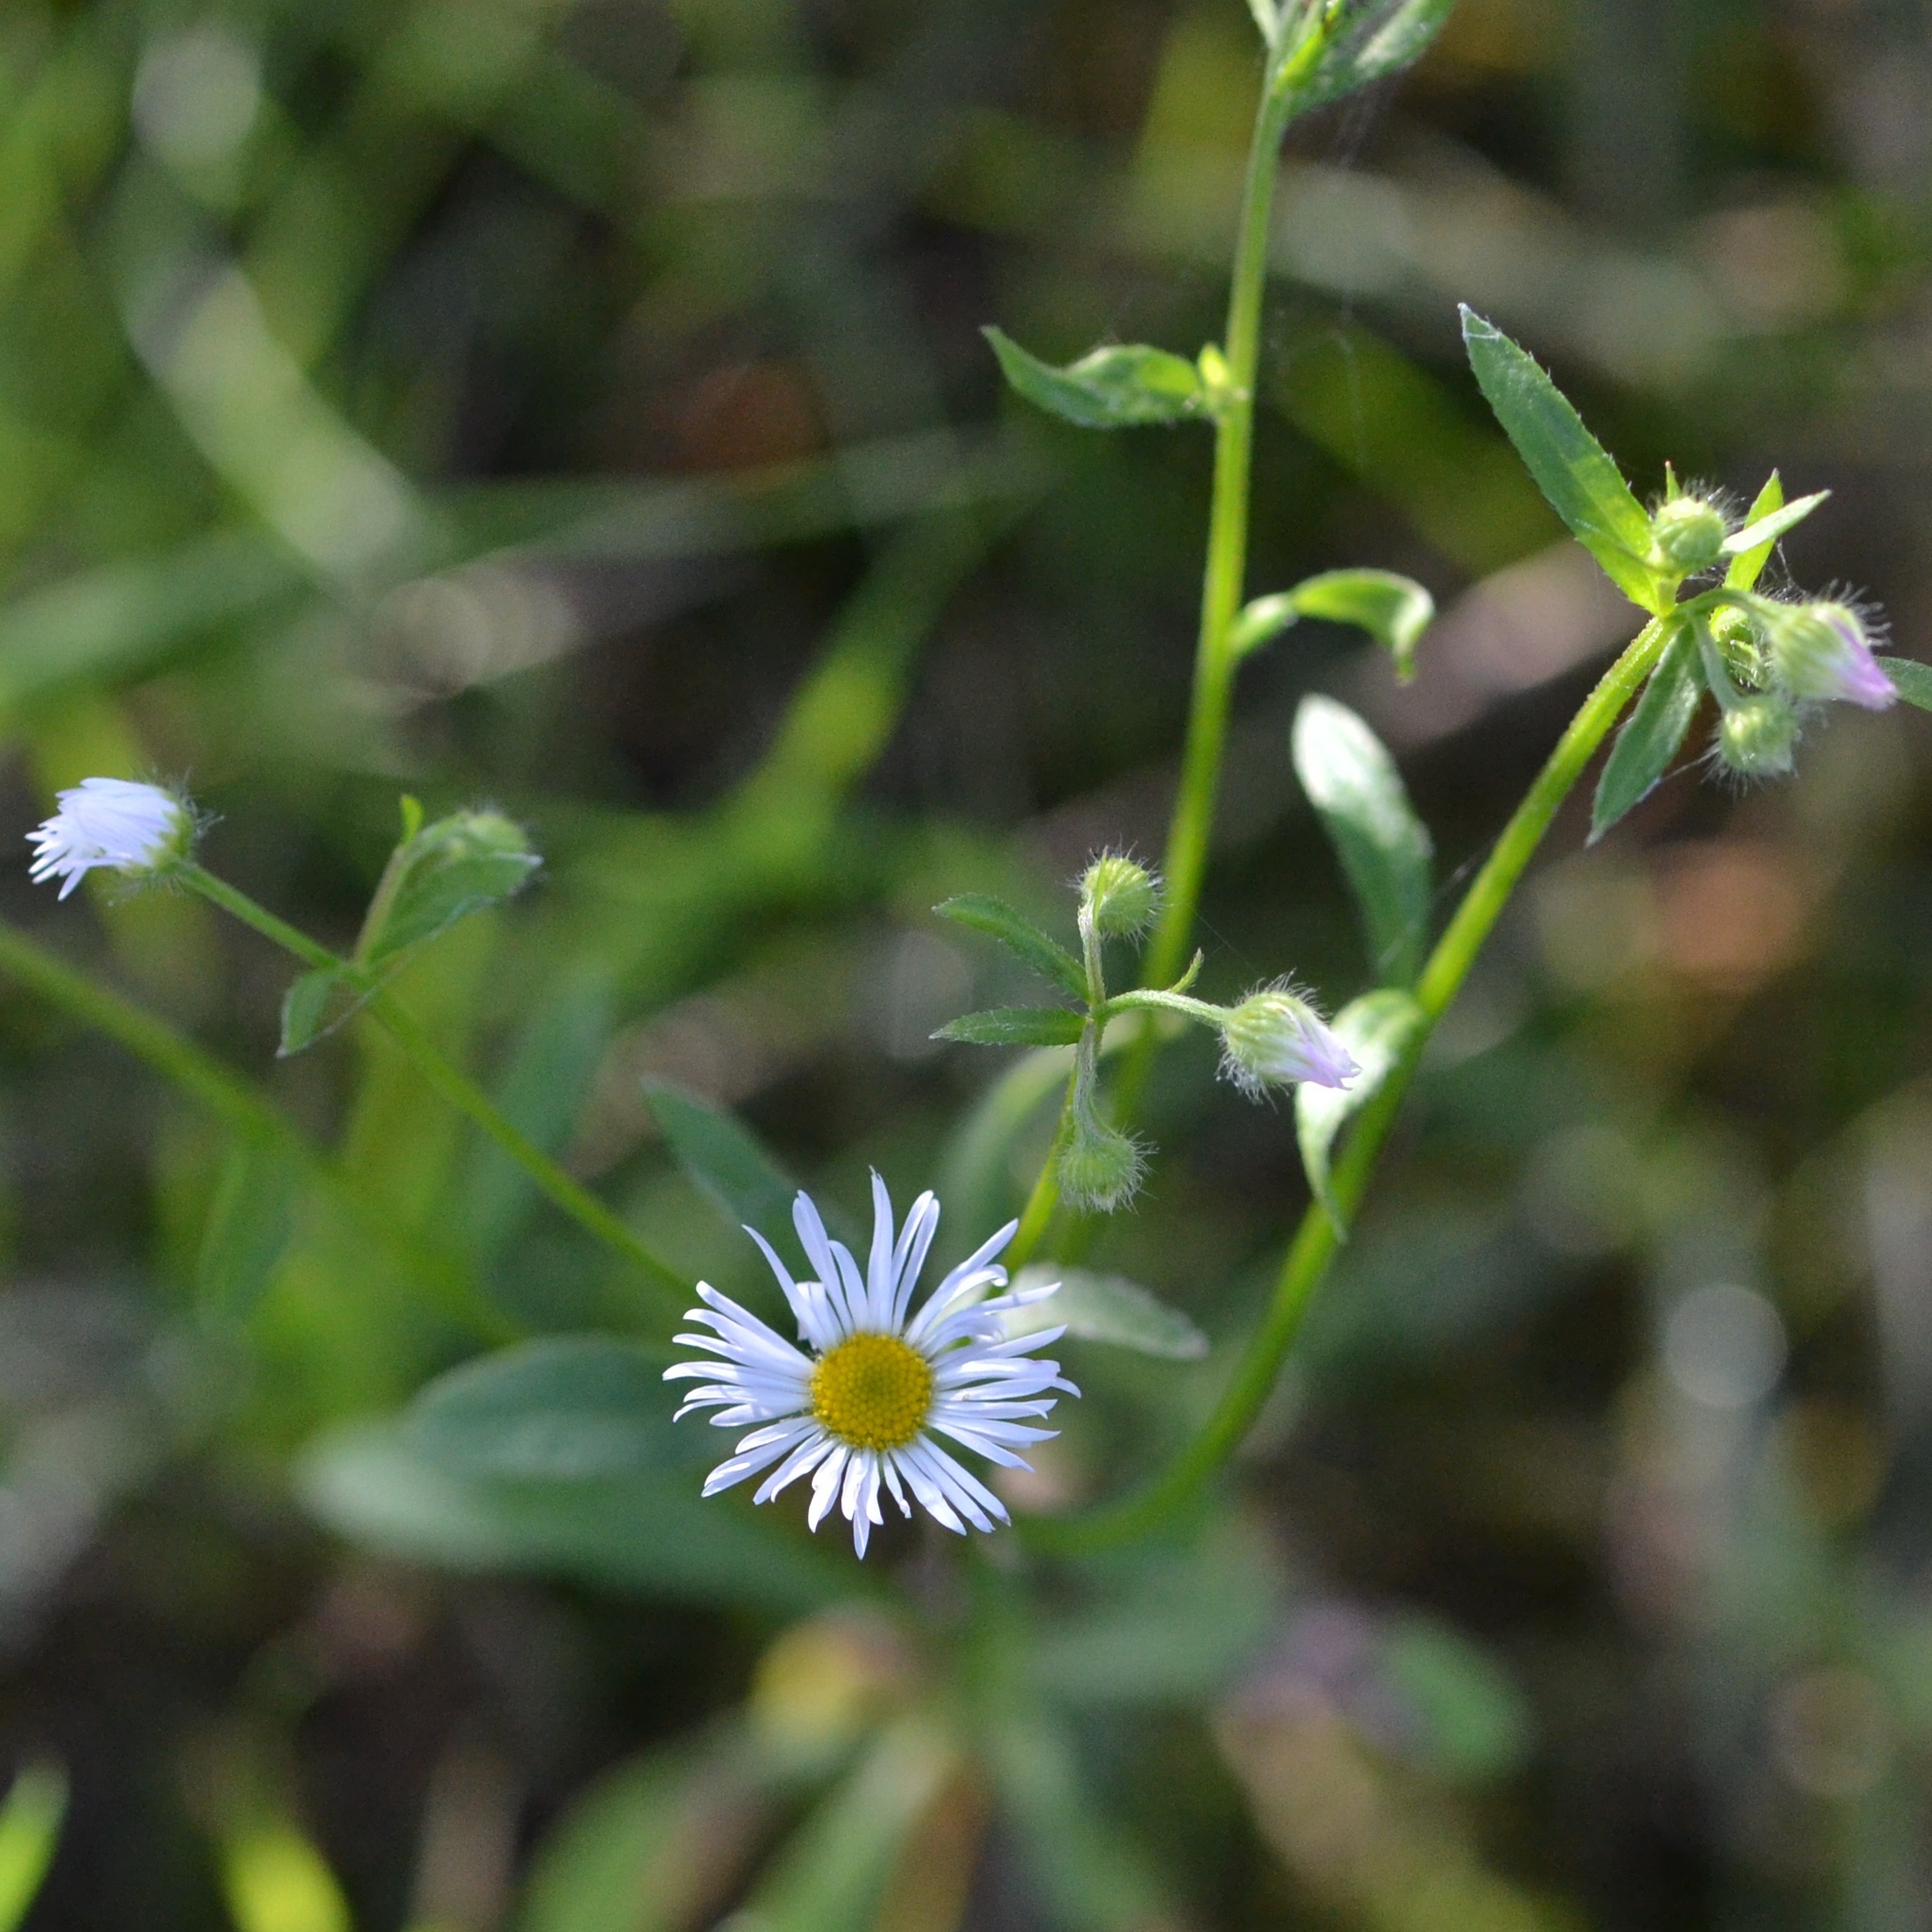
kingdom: Plantae
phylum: Tracheophyta
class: Magnoliopsida
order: Asterales
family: Asteraceae
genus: Erigeron
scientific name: Erigeron annuus
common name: Tall fleabane
